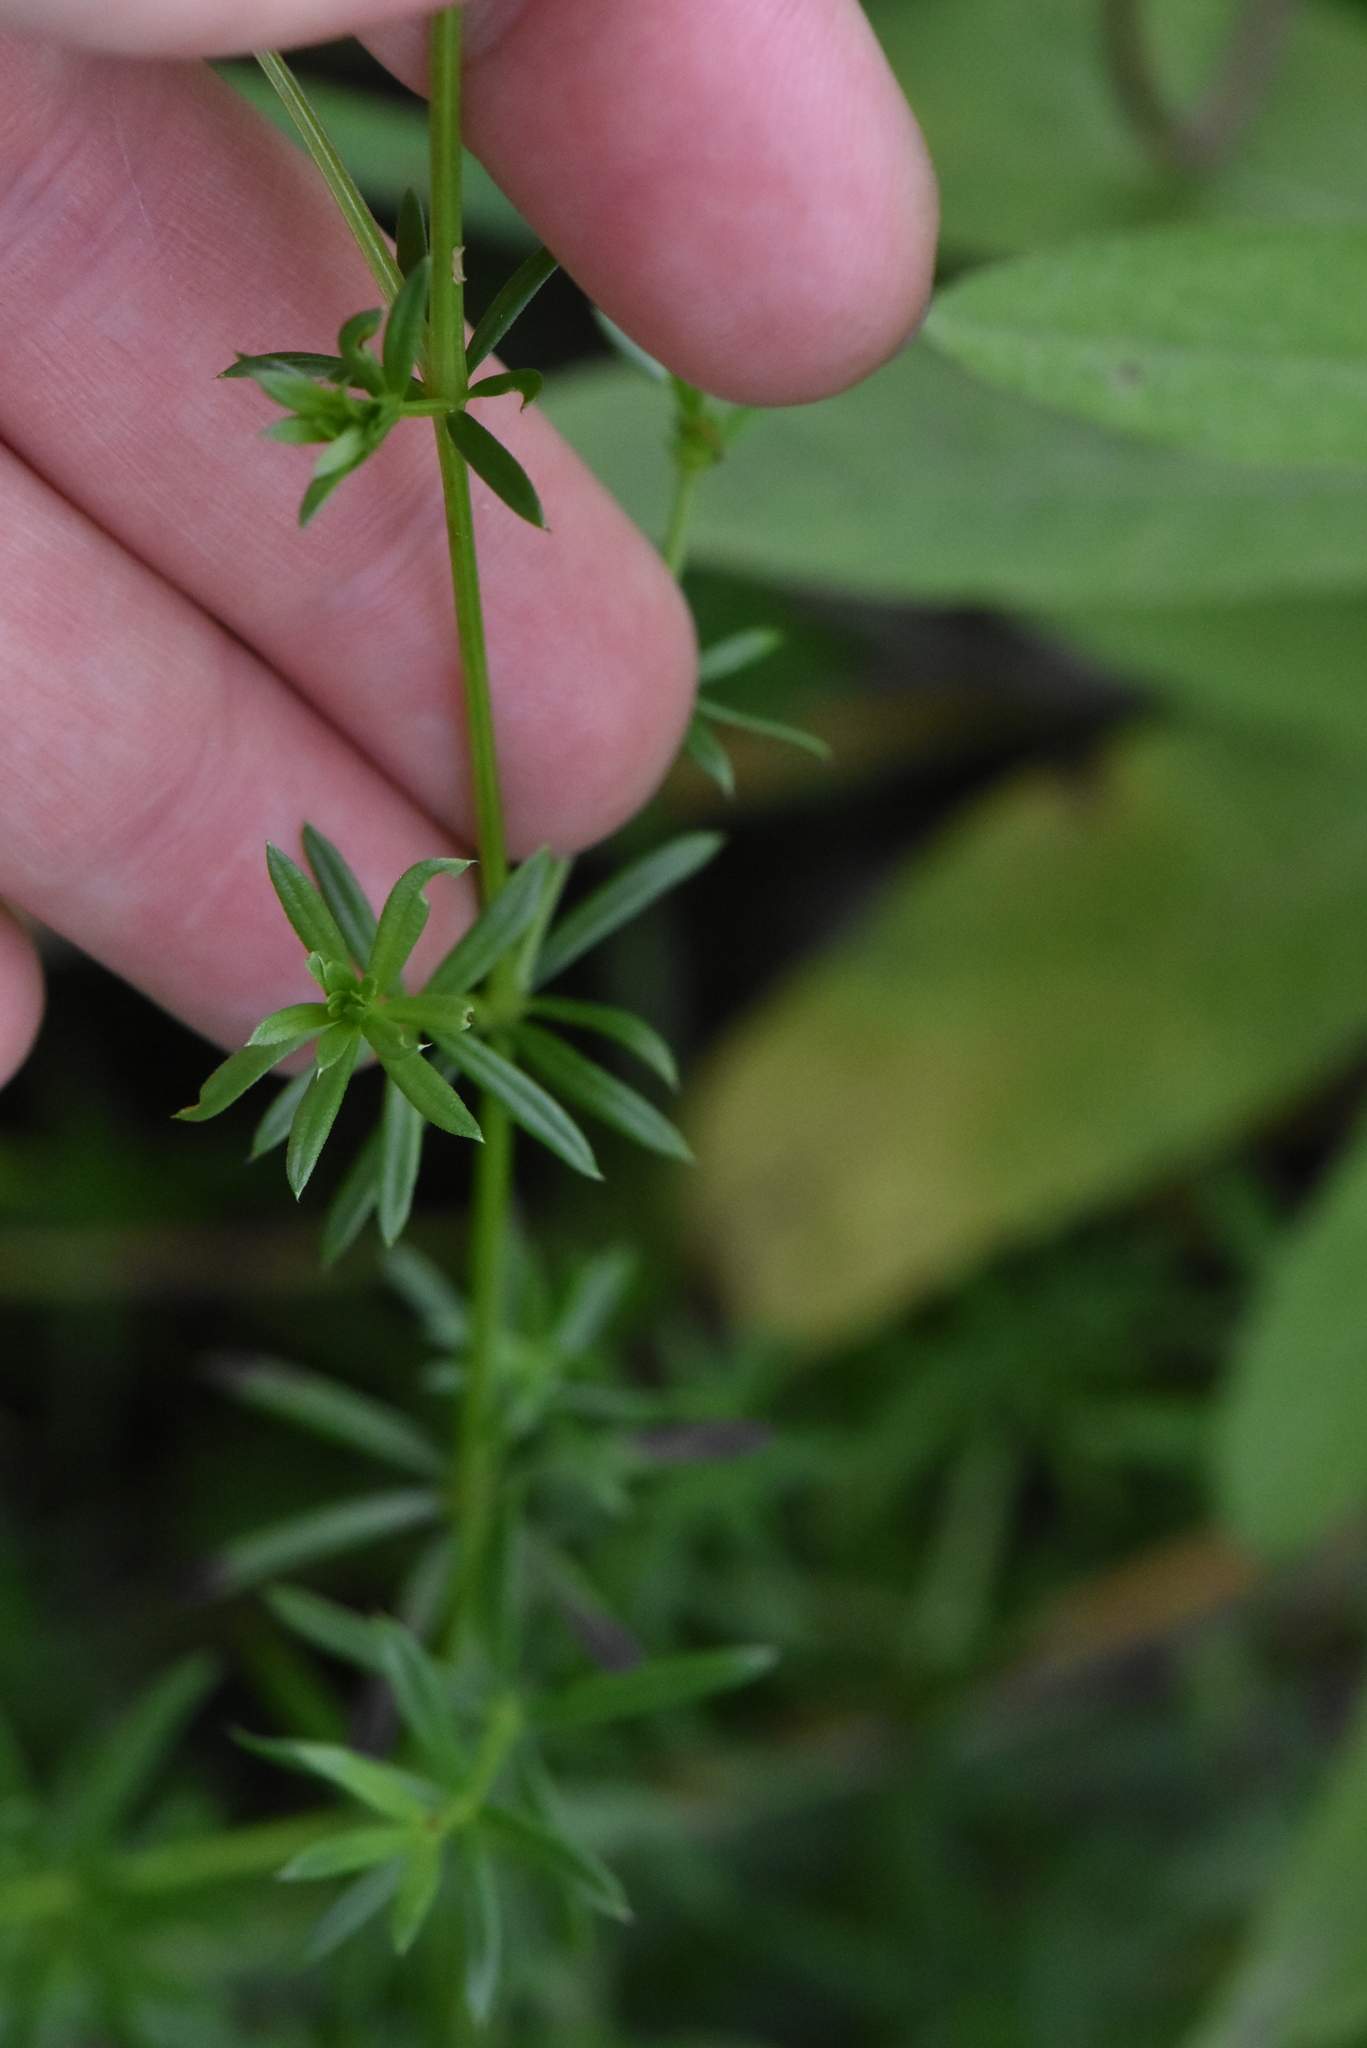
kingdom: Plantae
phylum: Tracheophyta
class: Magnoliopsida
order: Gentianales
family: Rubiaceae
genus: Galium
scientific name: Galium mollugo
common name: Hedge bedstraw
